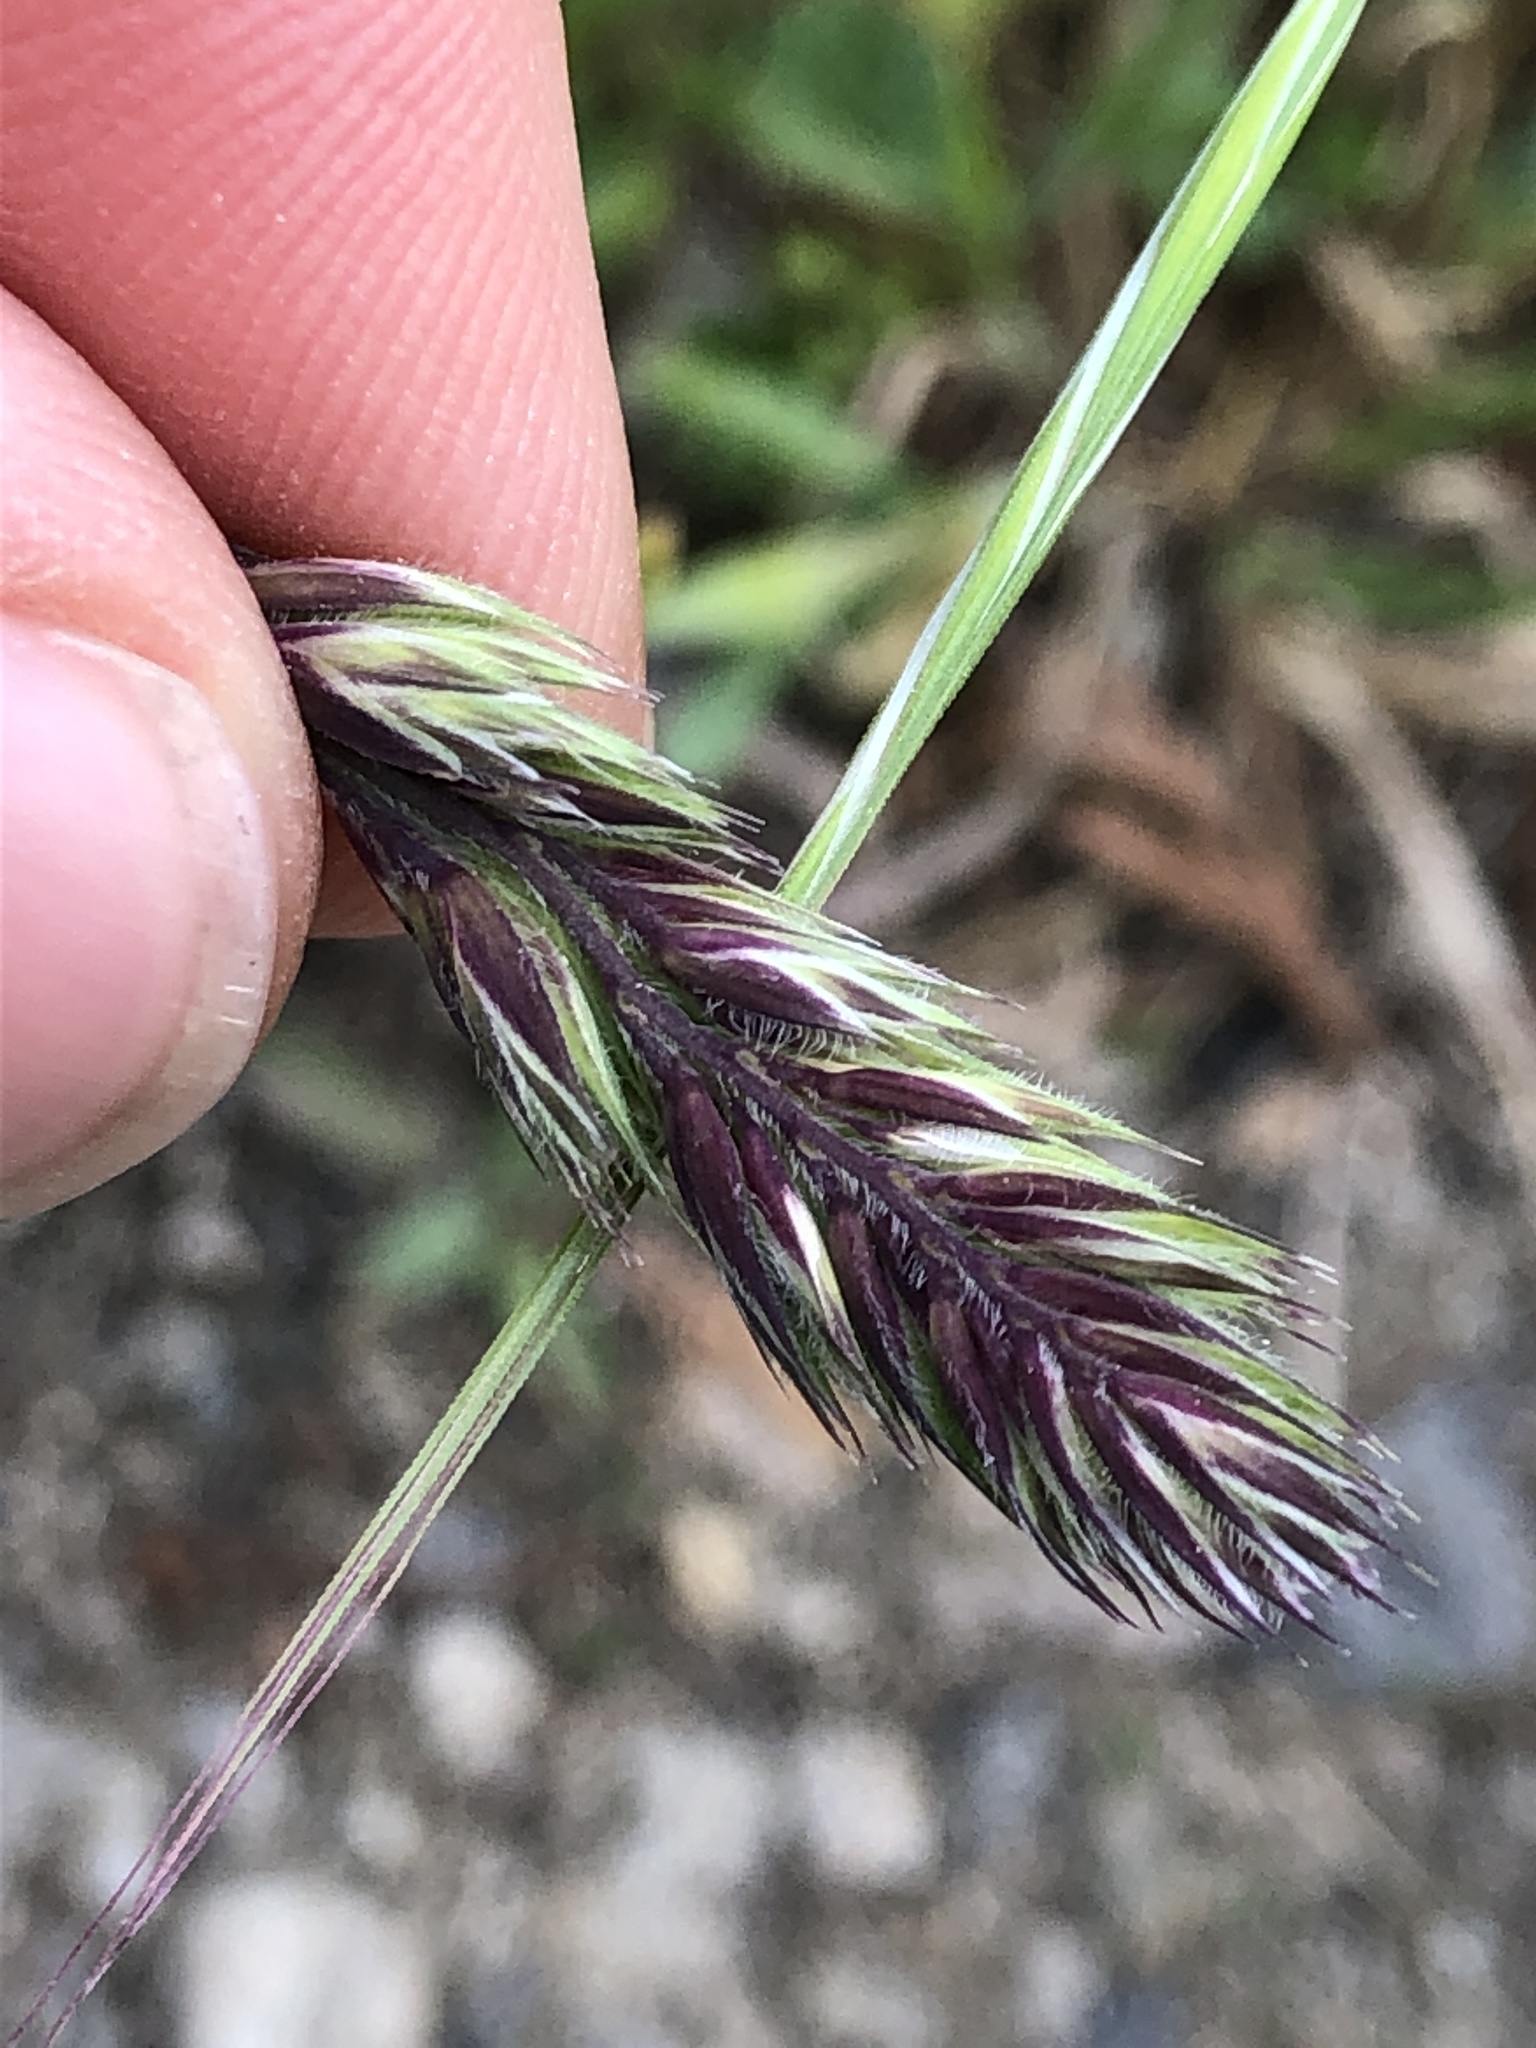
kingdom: Plantae
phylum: Tracheophyta
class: Liliopsida
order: Poales
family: Poaceae
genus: Dactylis
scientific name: Dactylis glomerata
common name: Orchardgrass
